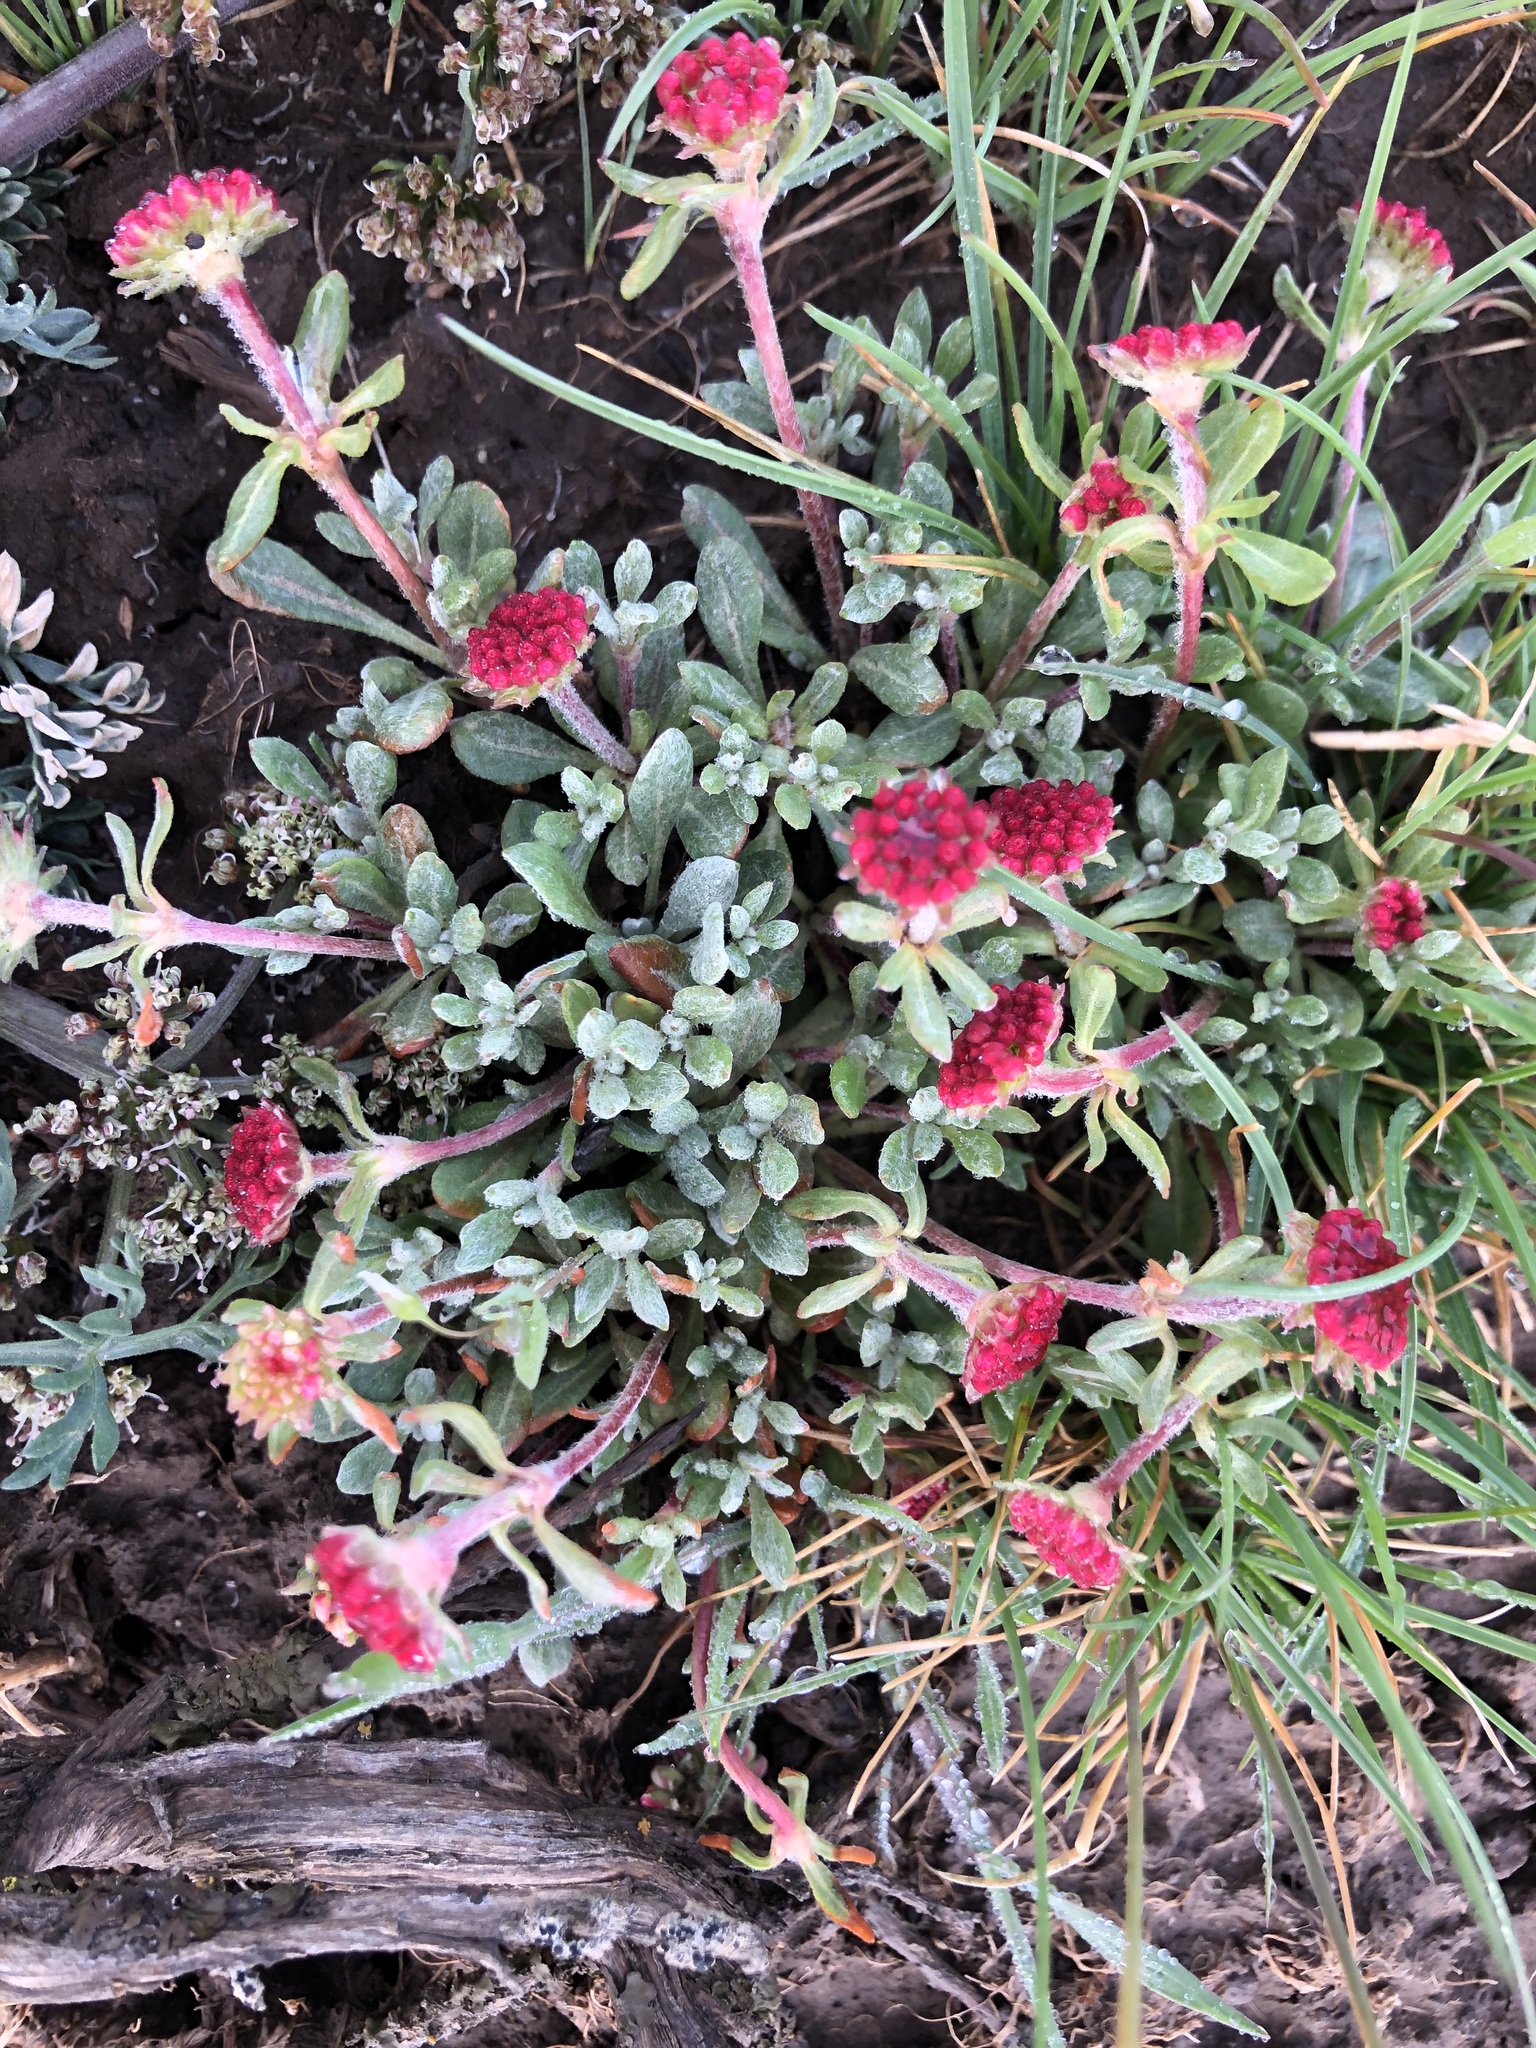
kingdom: Plantae
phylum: Tracheophyta
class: Magnoliopsida
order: Caryophyllales
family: Polygonaceae
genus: Eriogonum
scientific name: Eriogonum thymoides
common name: Thyme-leaf wild buckwheat
